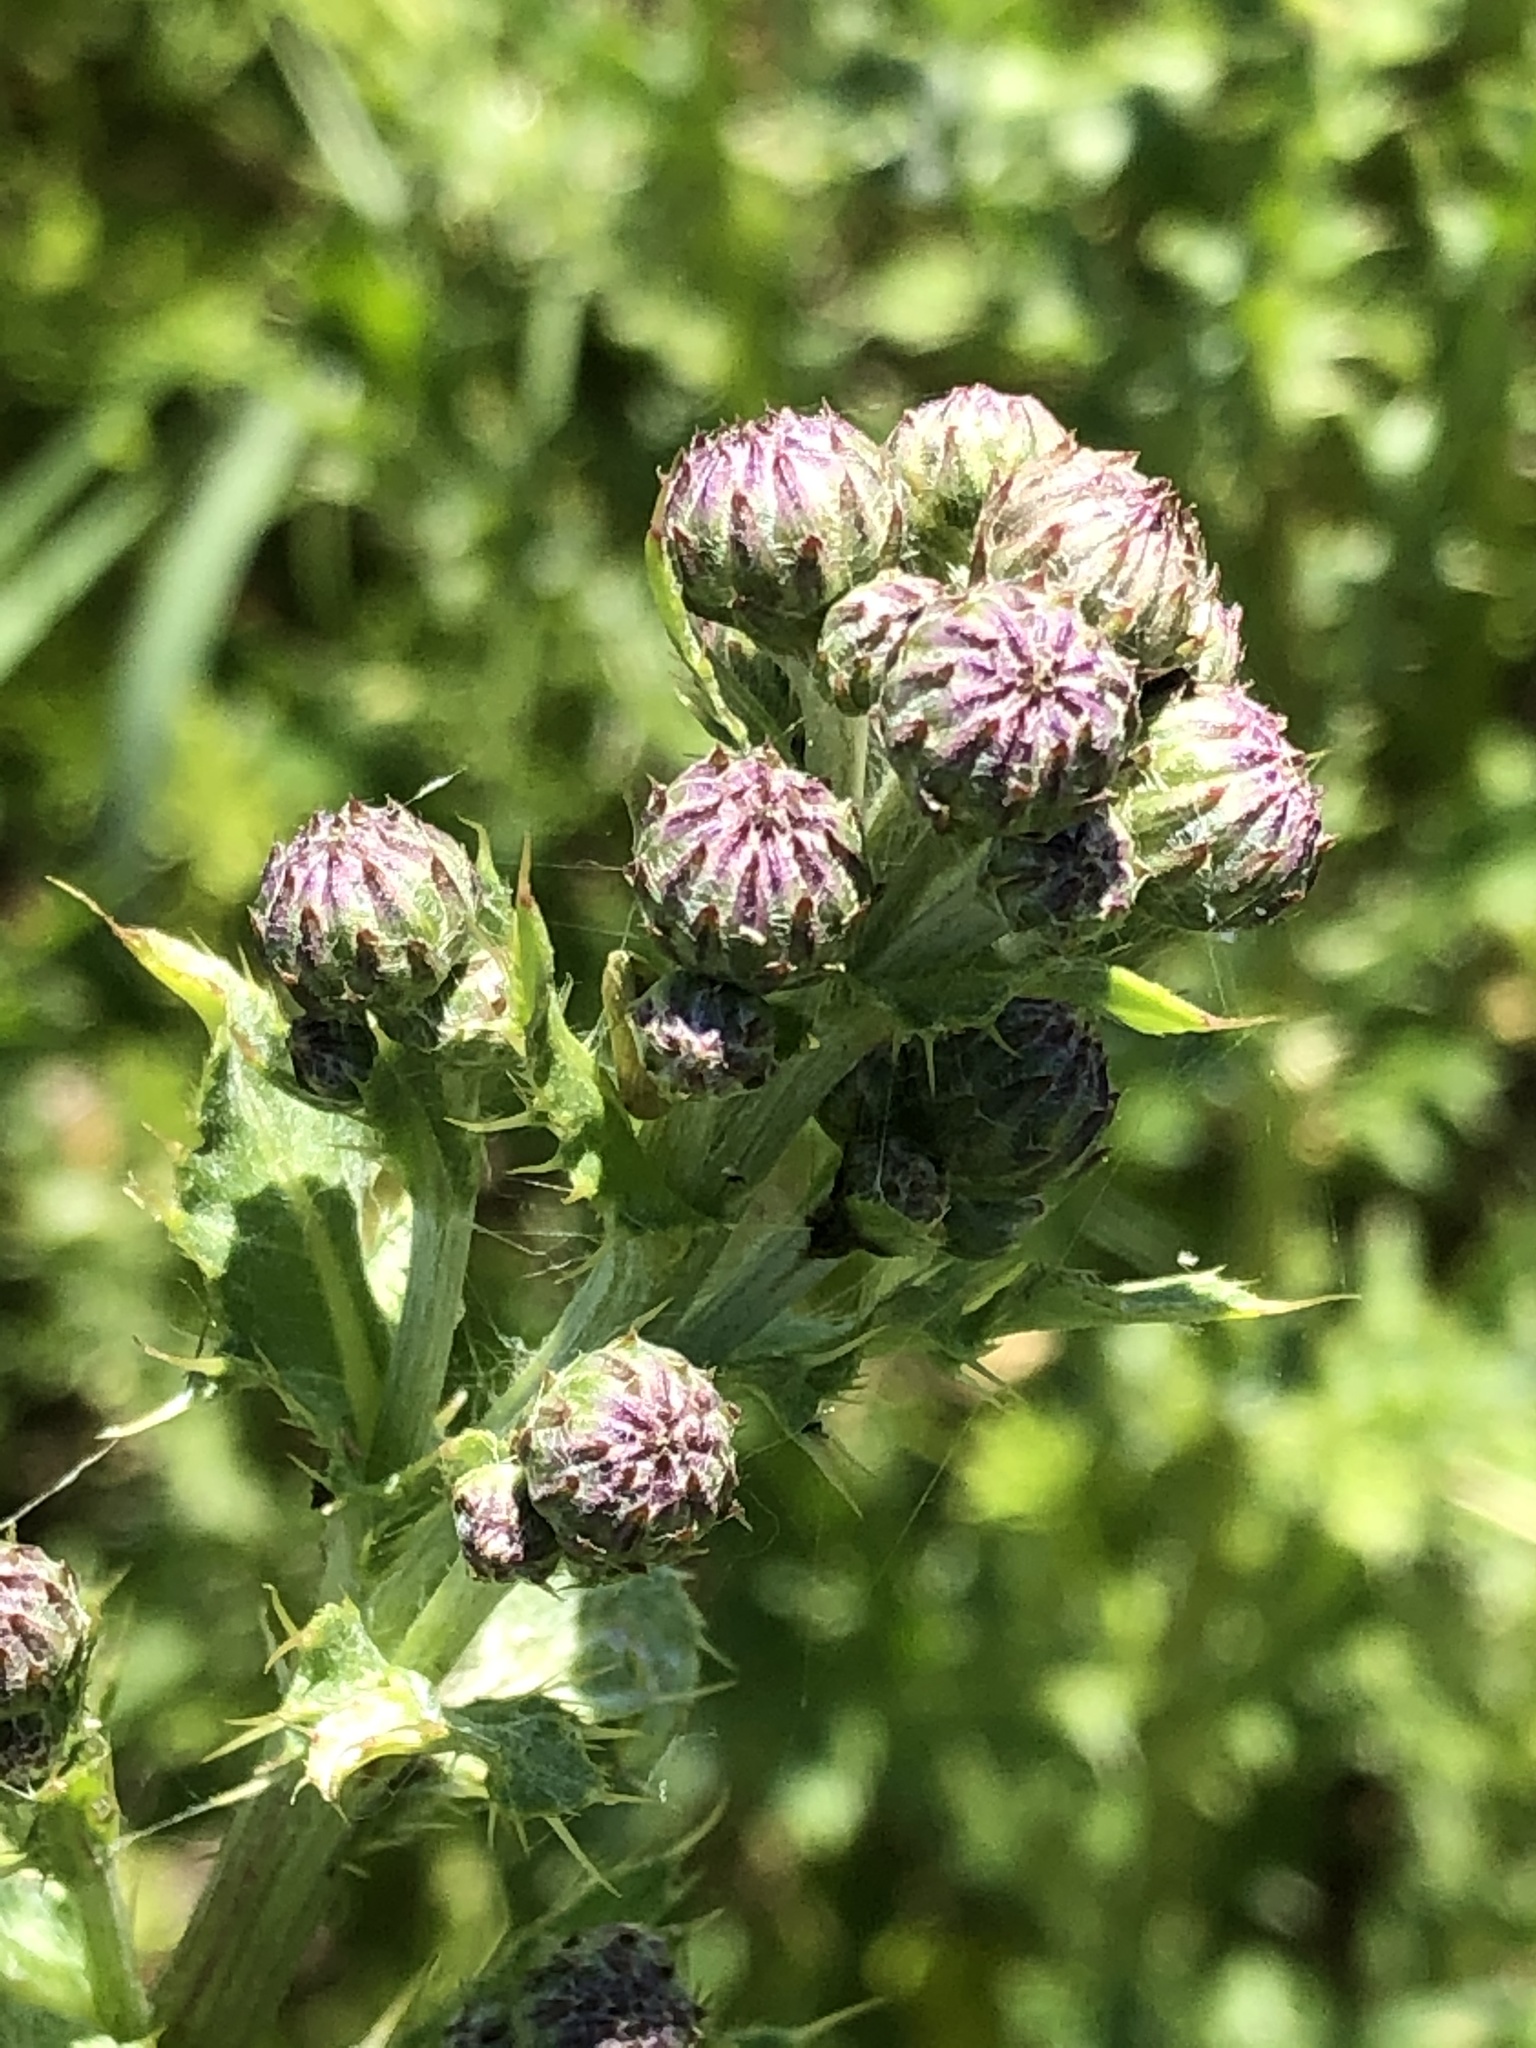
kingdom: Plantae
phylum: Tracheophyta
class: Magnoliopsida
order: Asterales
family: Asteraceae
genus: Cirsium
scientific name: Cirsium arvense
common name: Creeping thistle
